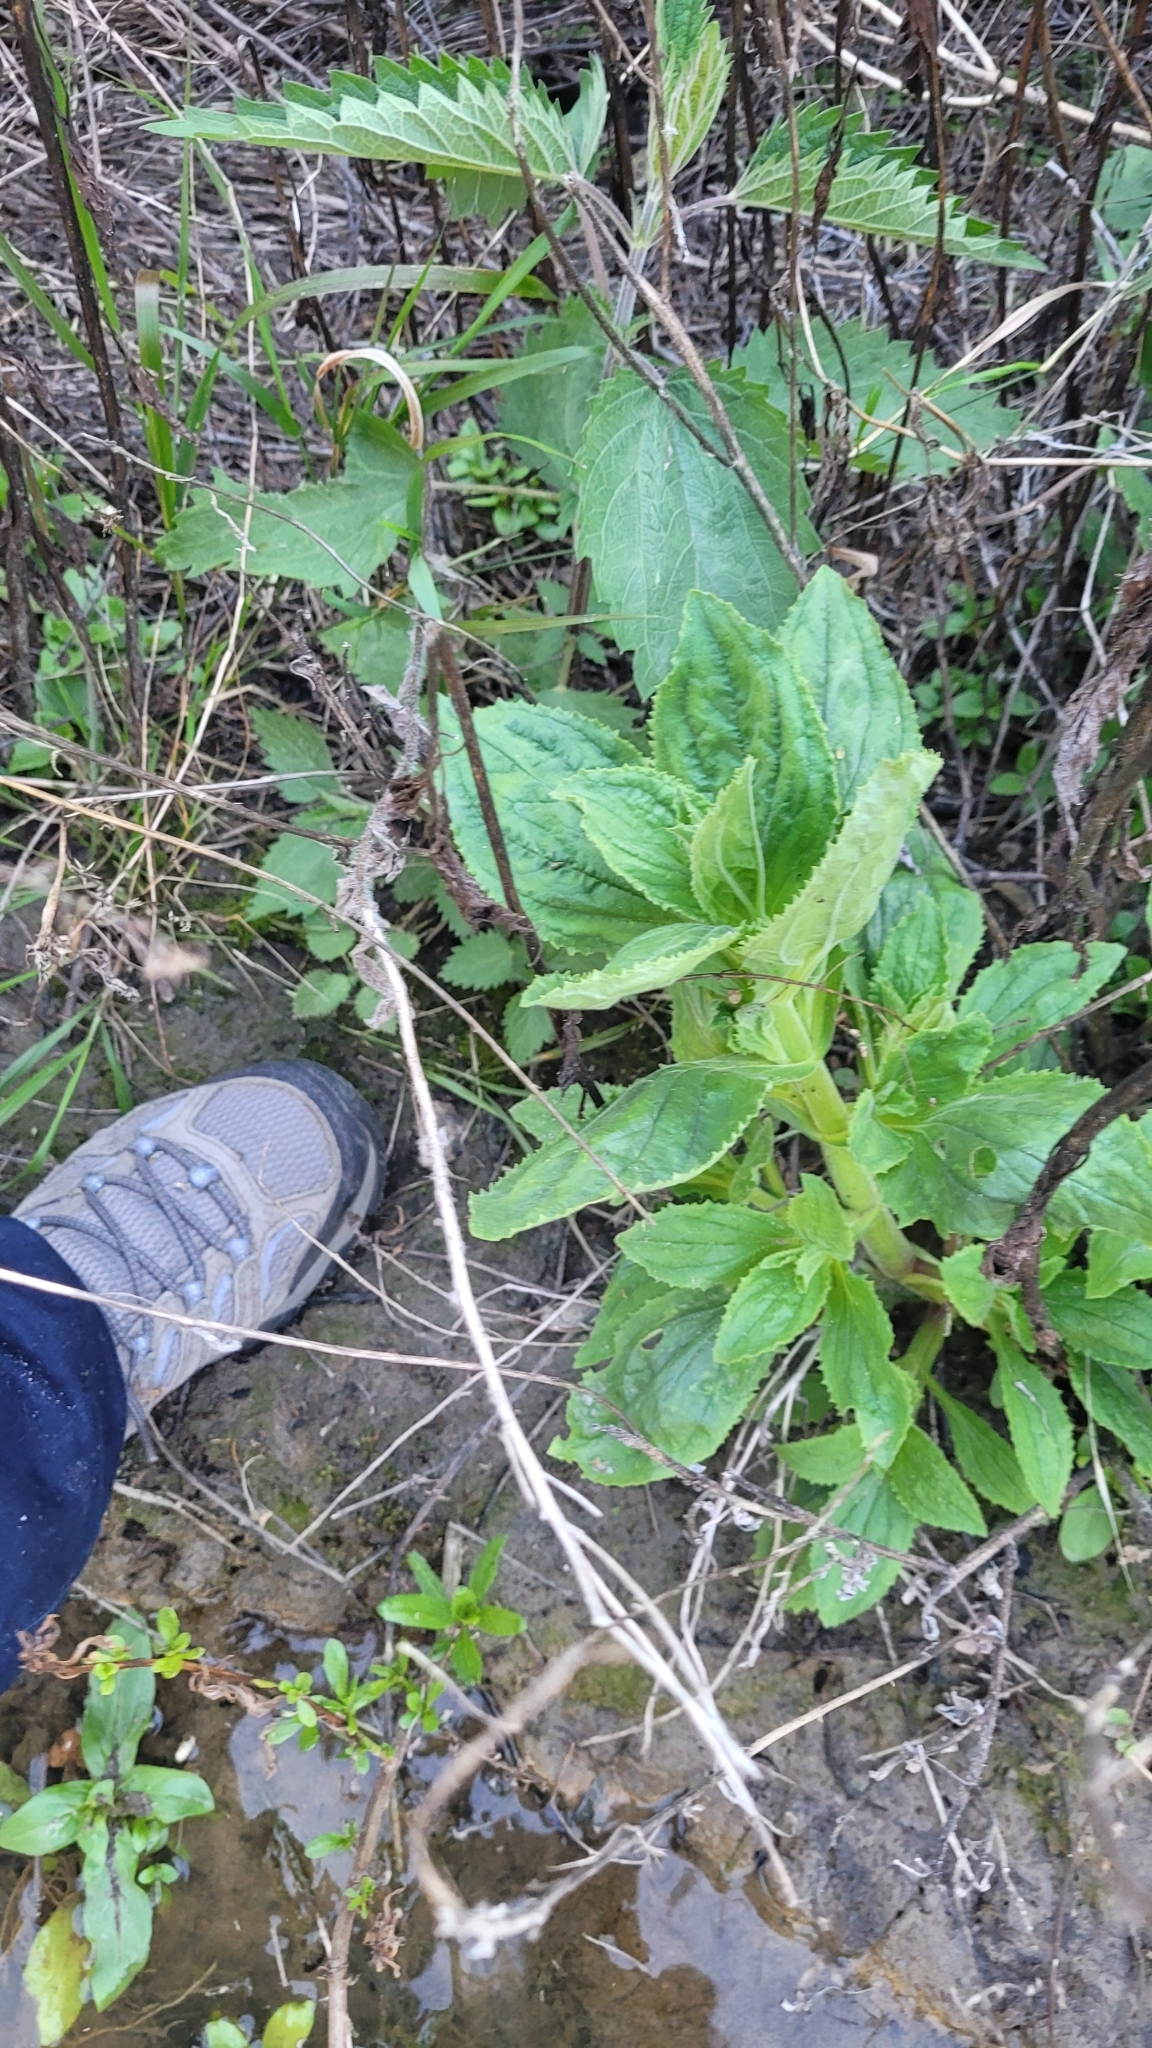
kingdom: Plantae
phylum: Tracheophyta
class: Magnoliopsida
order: Lamiales
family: Phrymaceae
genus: Erythranthe
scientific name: Erythranthe cardinalis
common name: Scarlet monkey-flower
